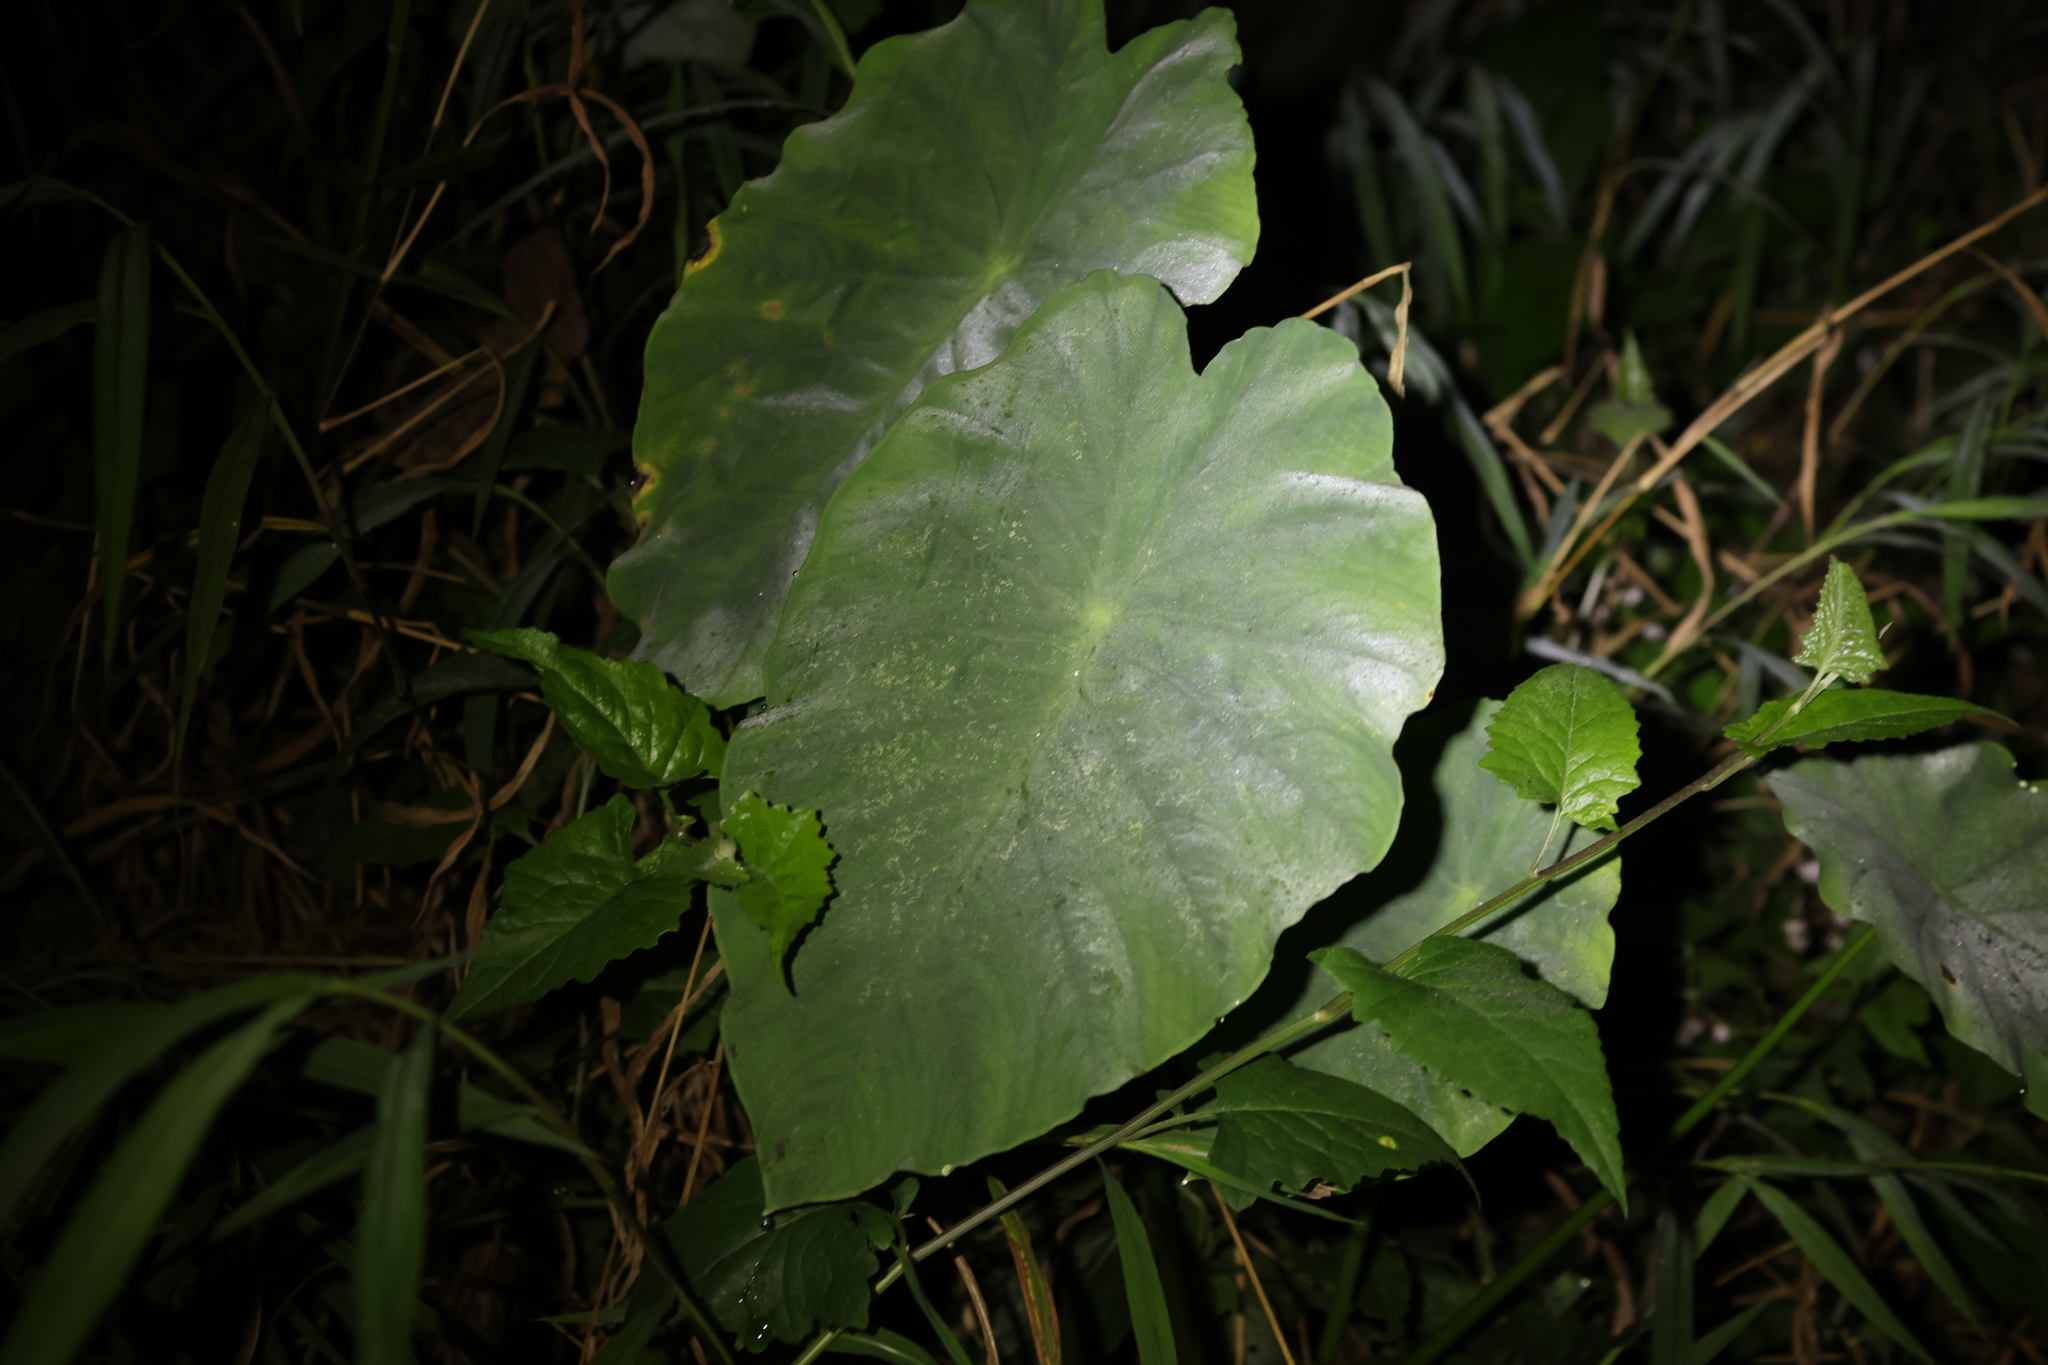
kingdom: Plantae
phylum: Tracheophyta
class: Liliopsida
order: Alismatales
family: Araceae
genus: Colocasia
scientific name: Colocasia esculenta
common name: Taro
